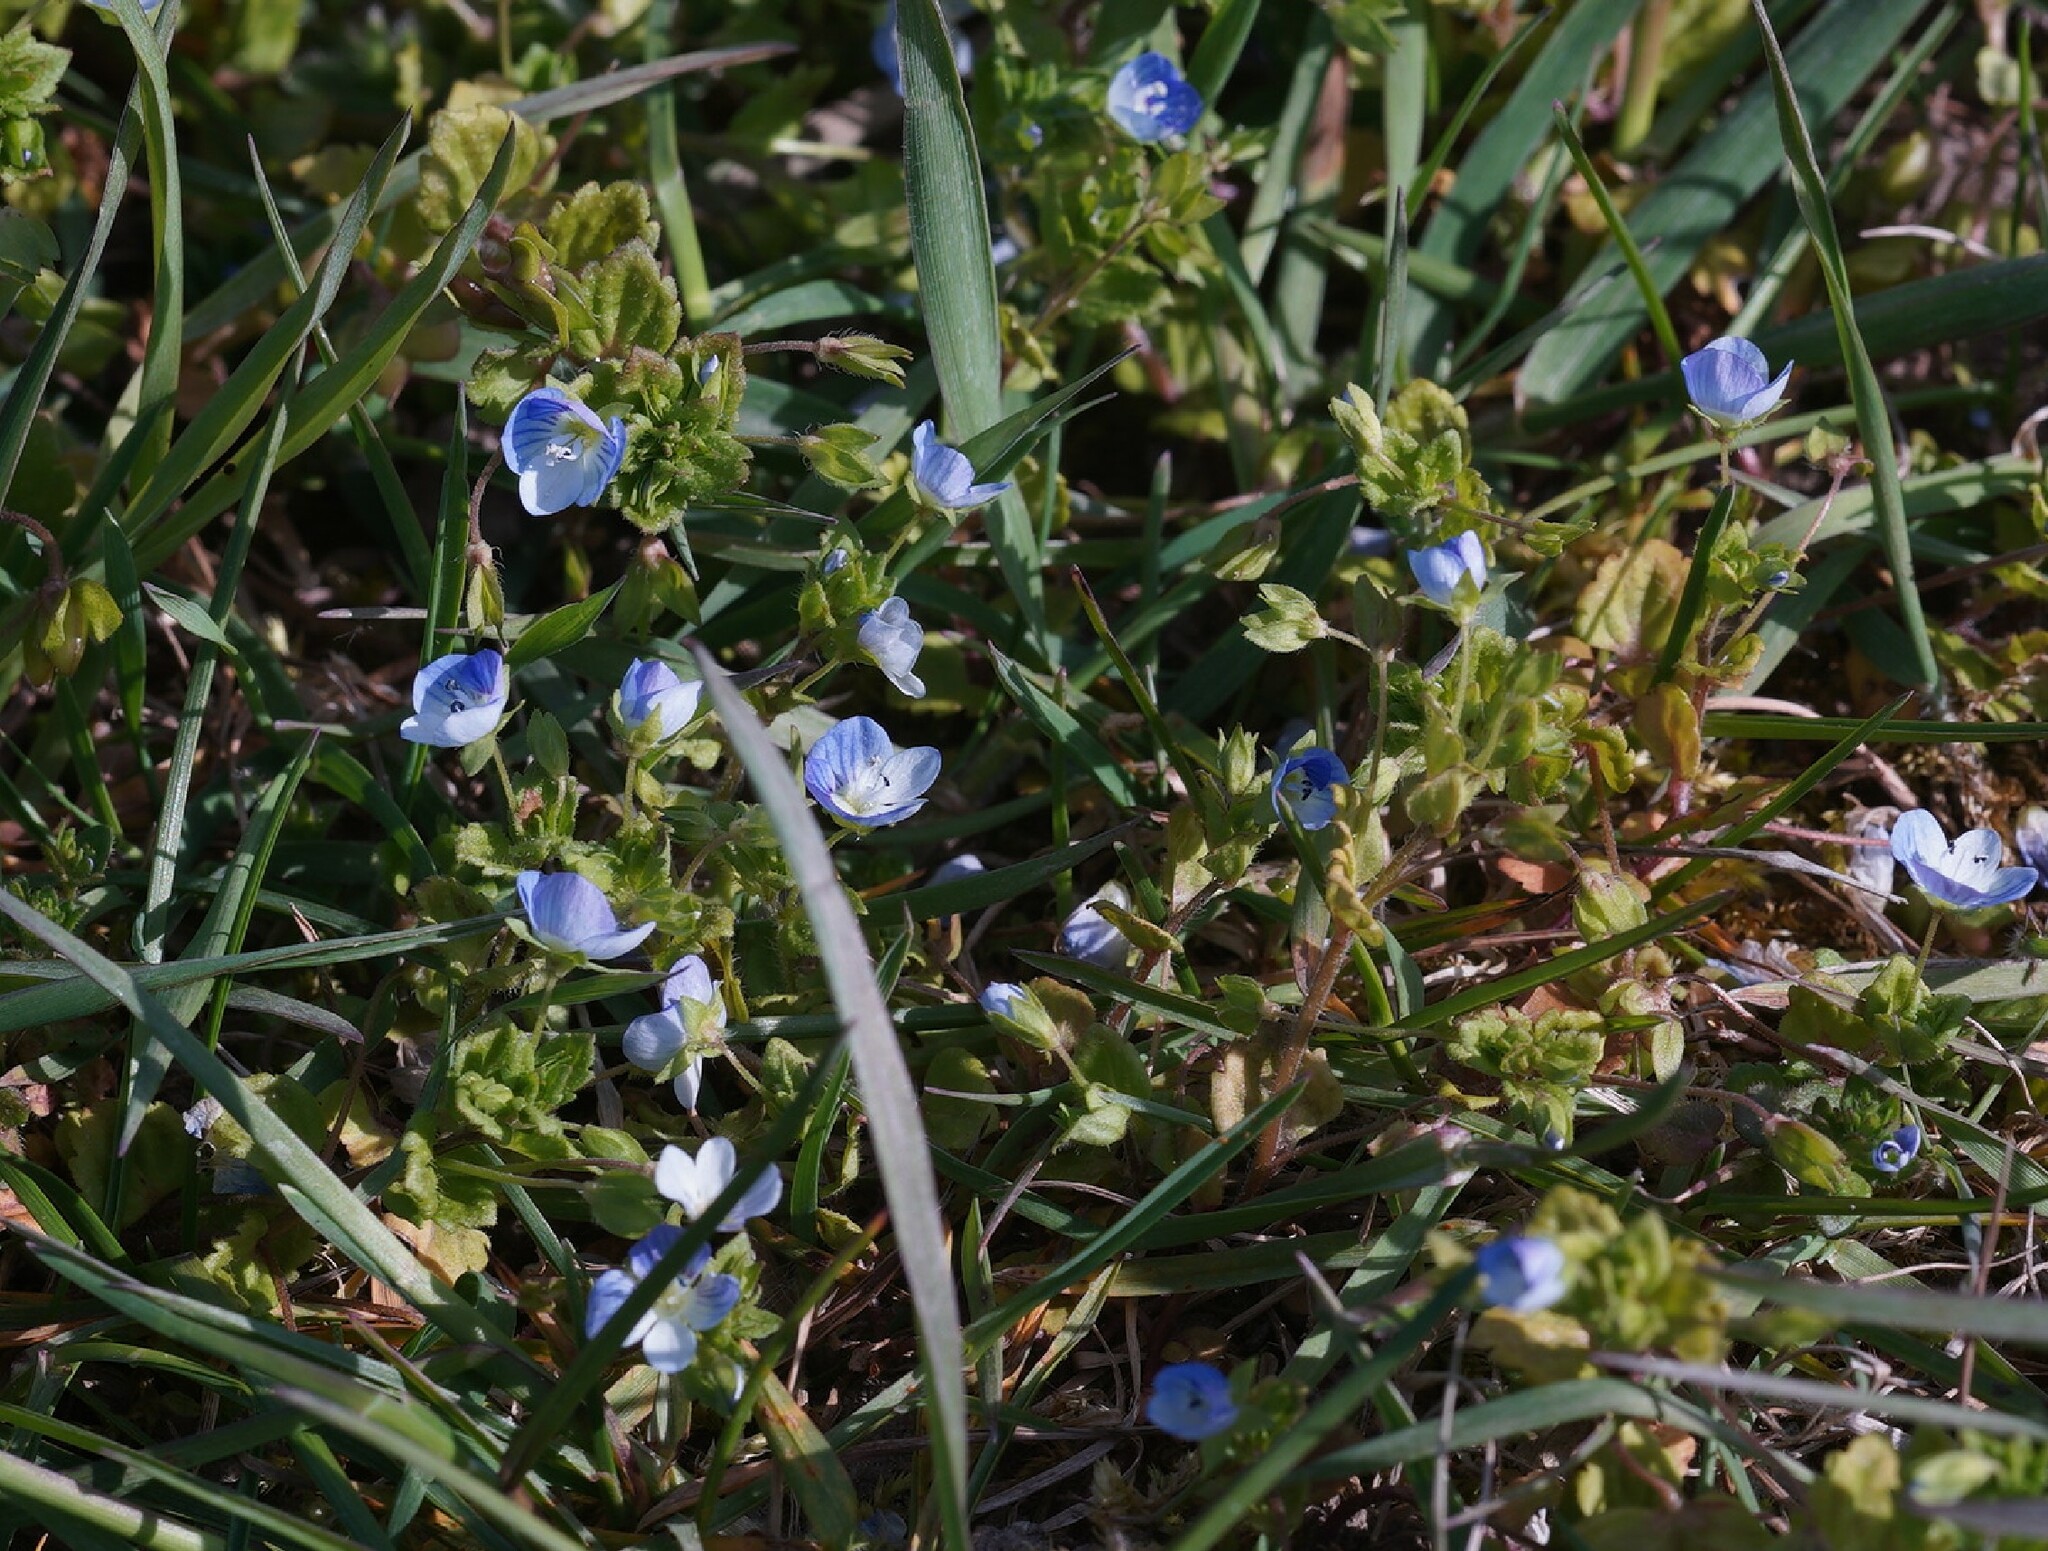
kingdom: Plantae
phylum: Tracheophyta
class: Magnoliopsida
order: Lamiales
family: Plantaginaceae
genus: Veronica
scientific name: Veronica persica
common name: Common field-speedwell
